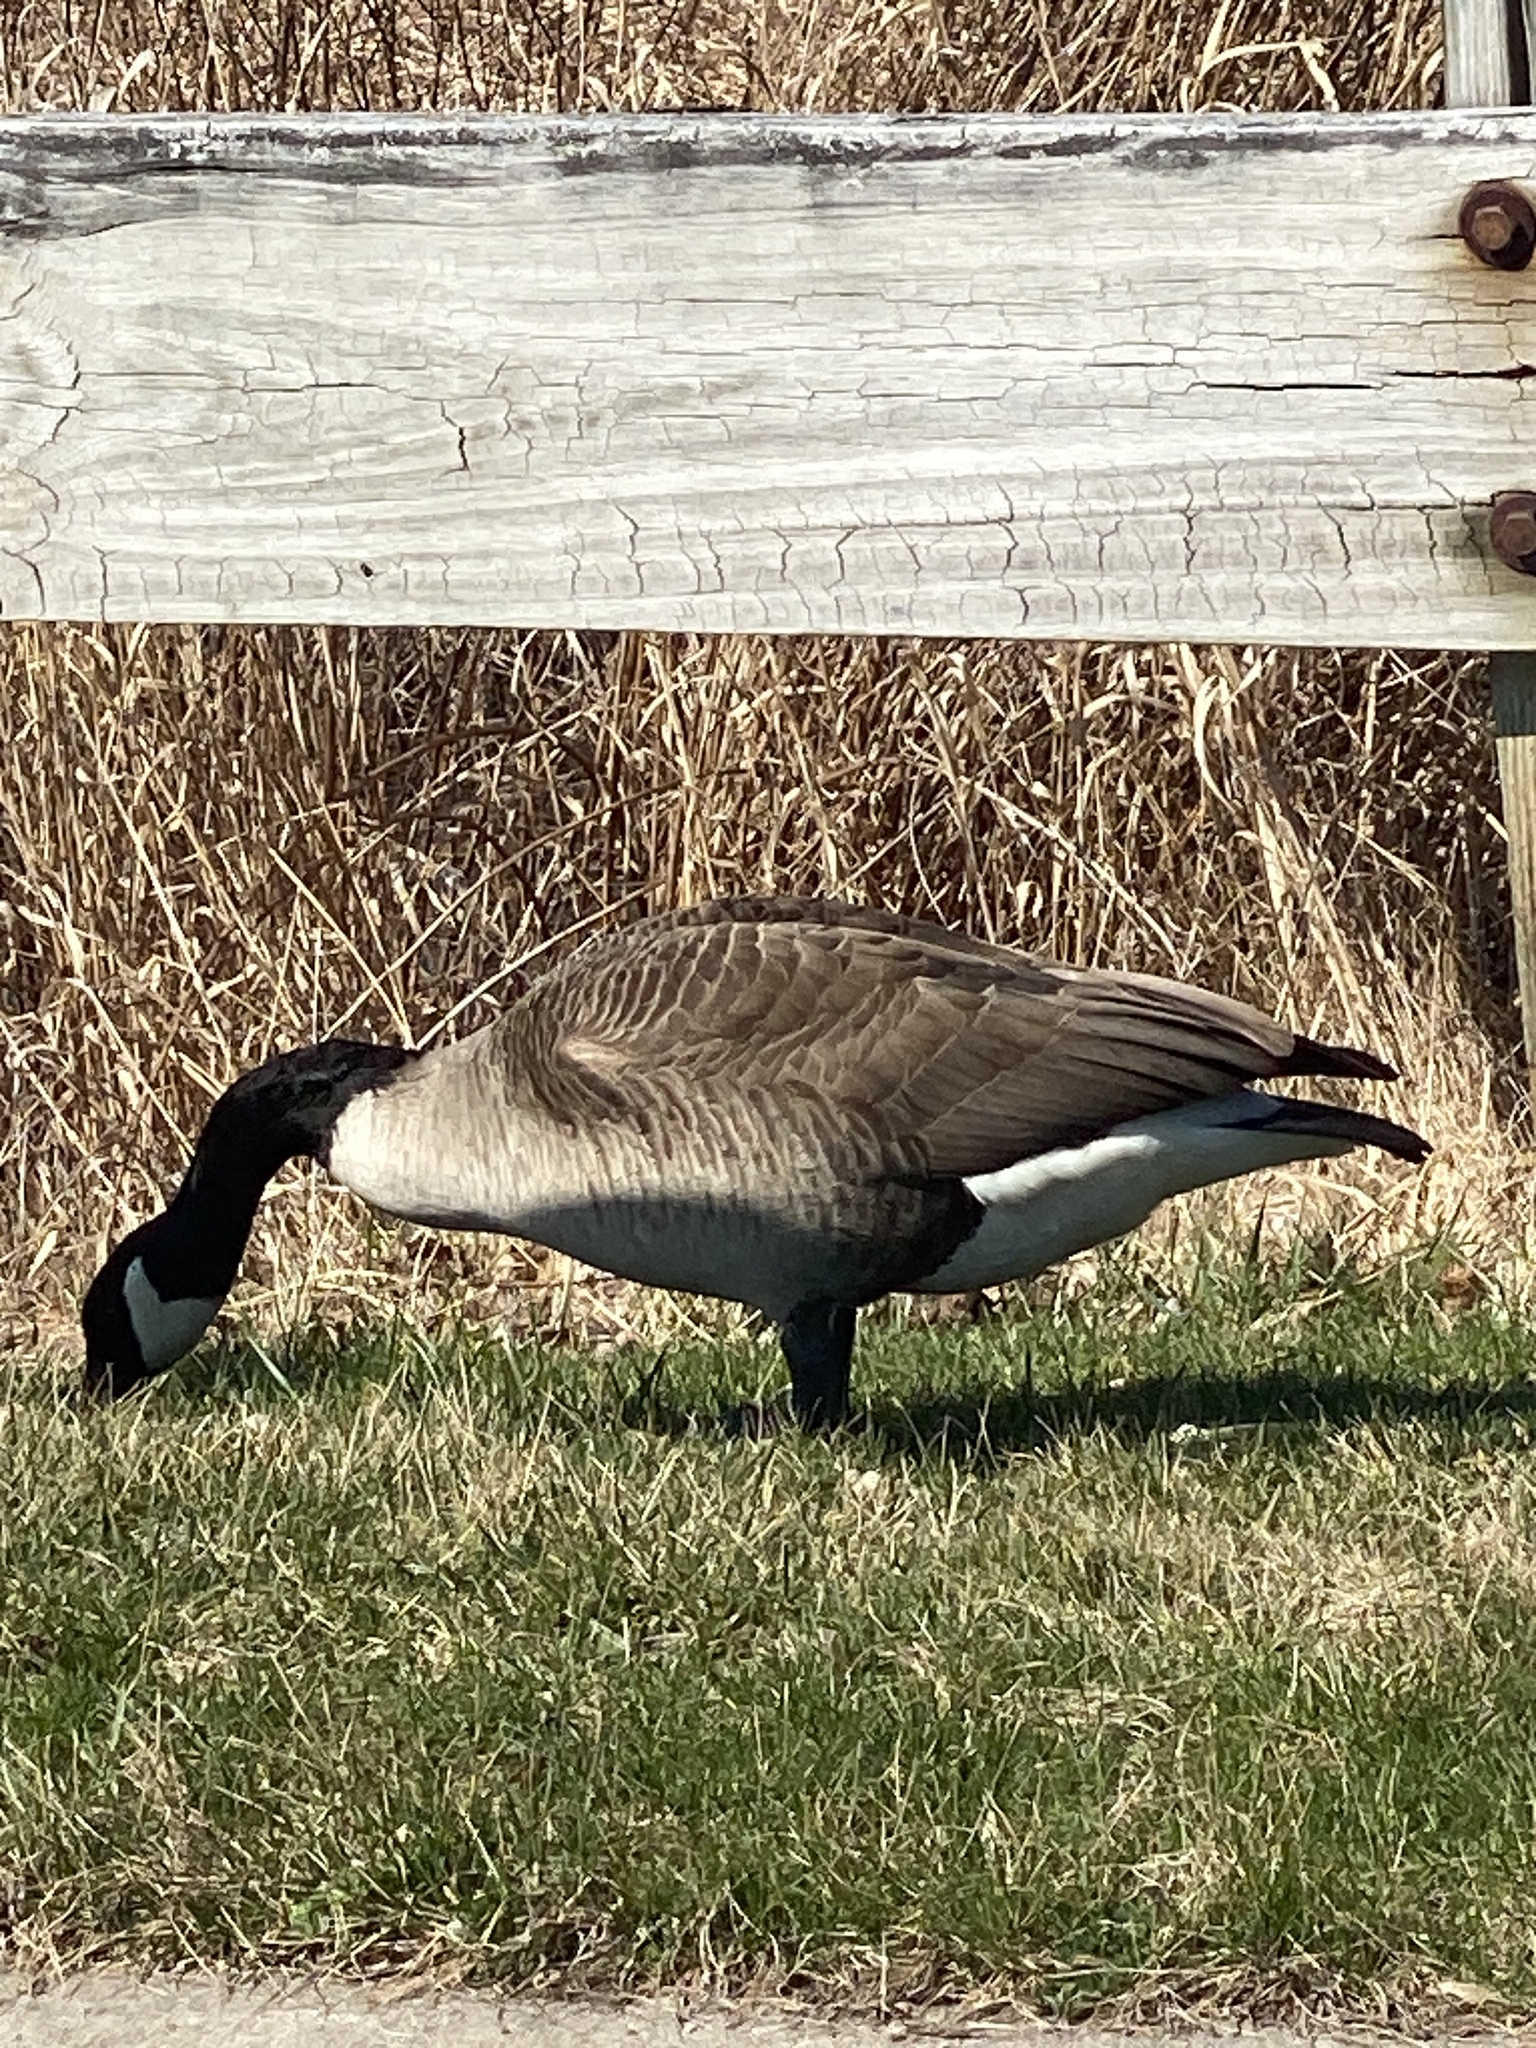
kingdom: Animalia
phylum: Chordata
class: Aves
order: Anseriformes
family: Anatidae
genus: Branta
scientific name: Branta canadensis
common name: Canada goose
